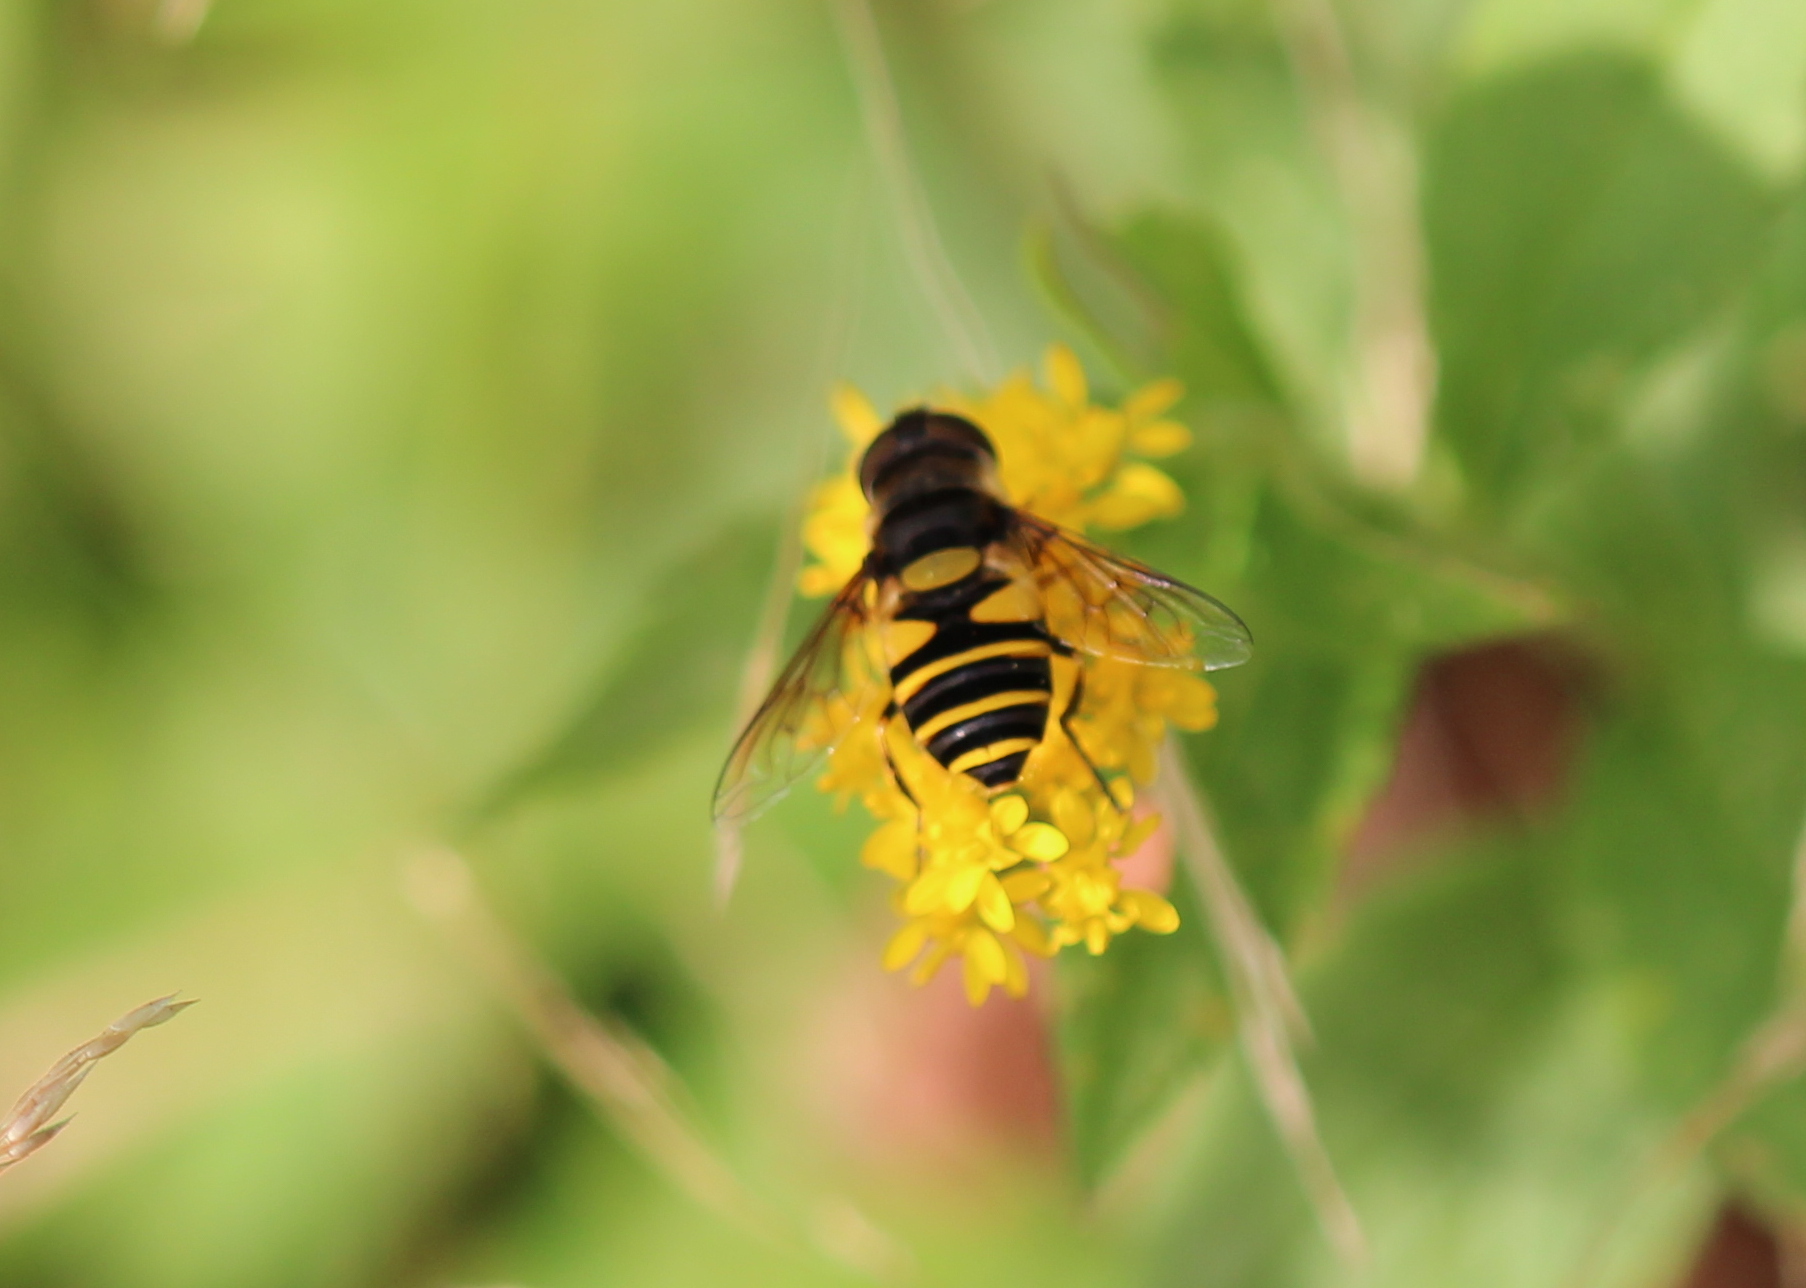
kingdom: Animalia
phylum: Arthropoda
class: Insecta
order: Diptera
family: Syrphidae
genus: Eristalis
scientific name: Eristalis transversa
